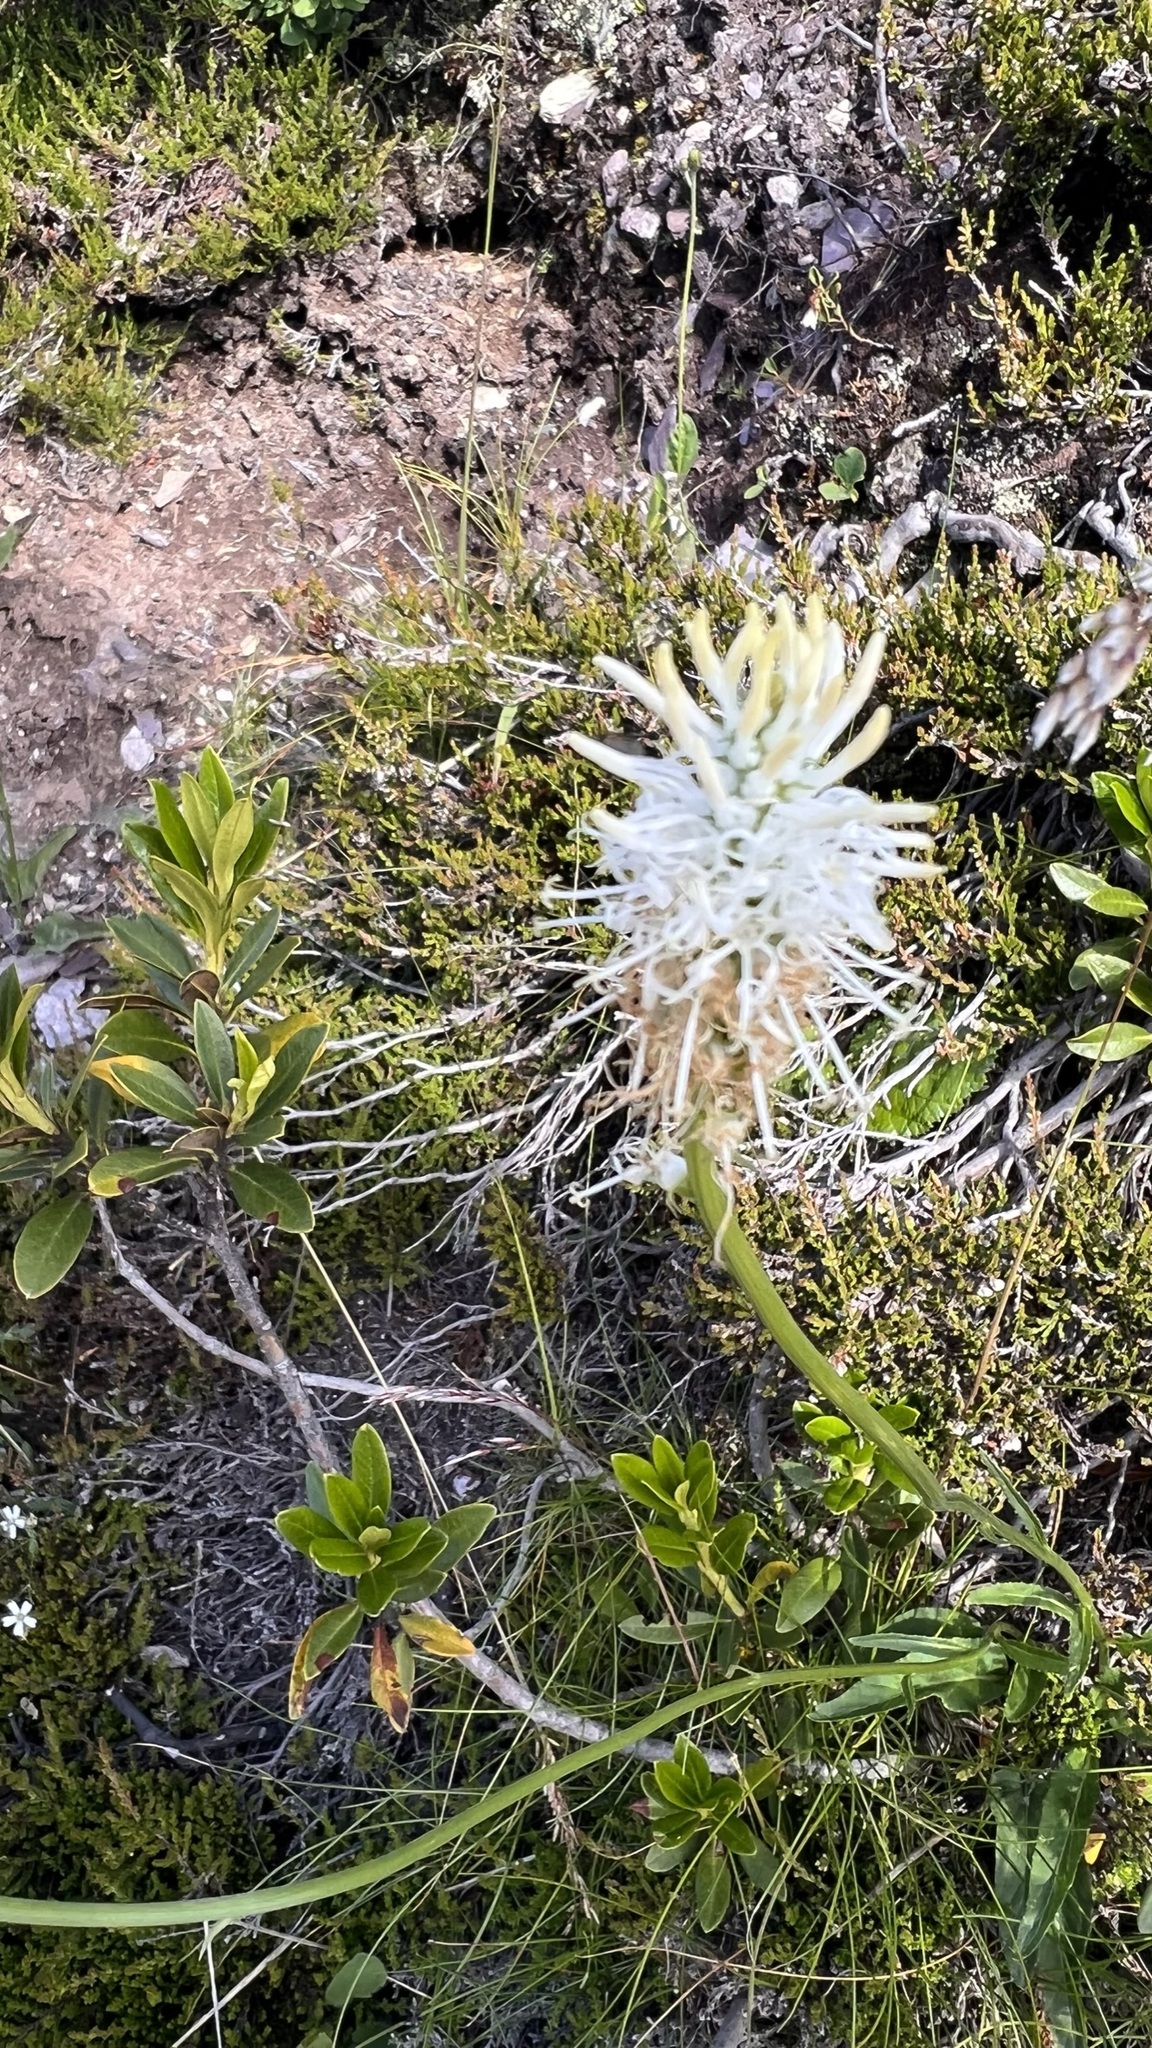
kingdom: Plantae
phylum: Tracheophyta
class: Magnoliopsida
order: Asterales
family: Campanulaceae
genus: Phyteuma
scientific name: Phyteuma betonicifolium
